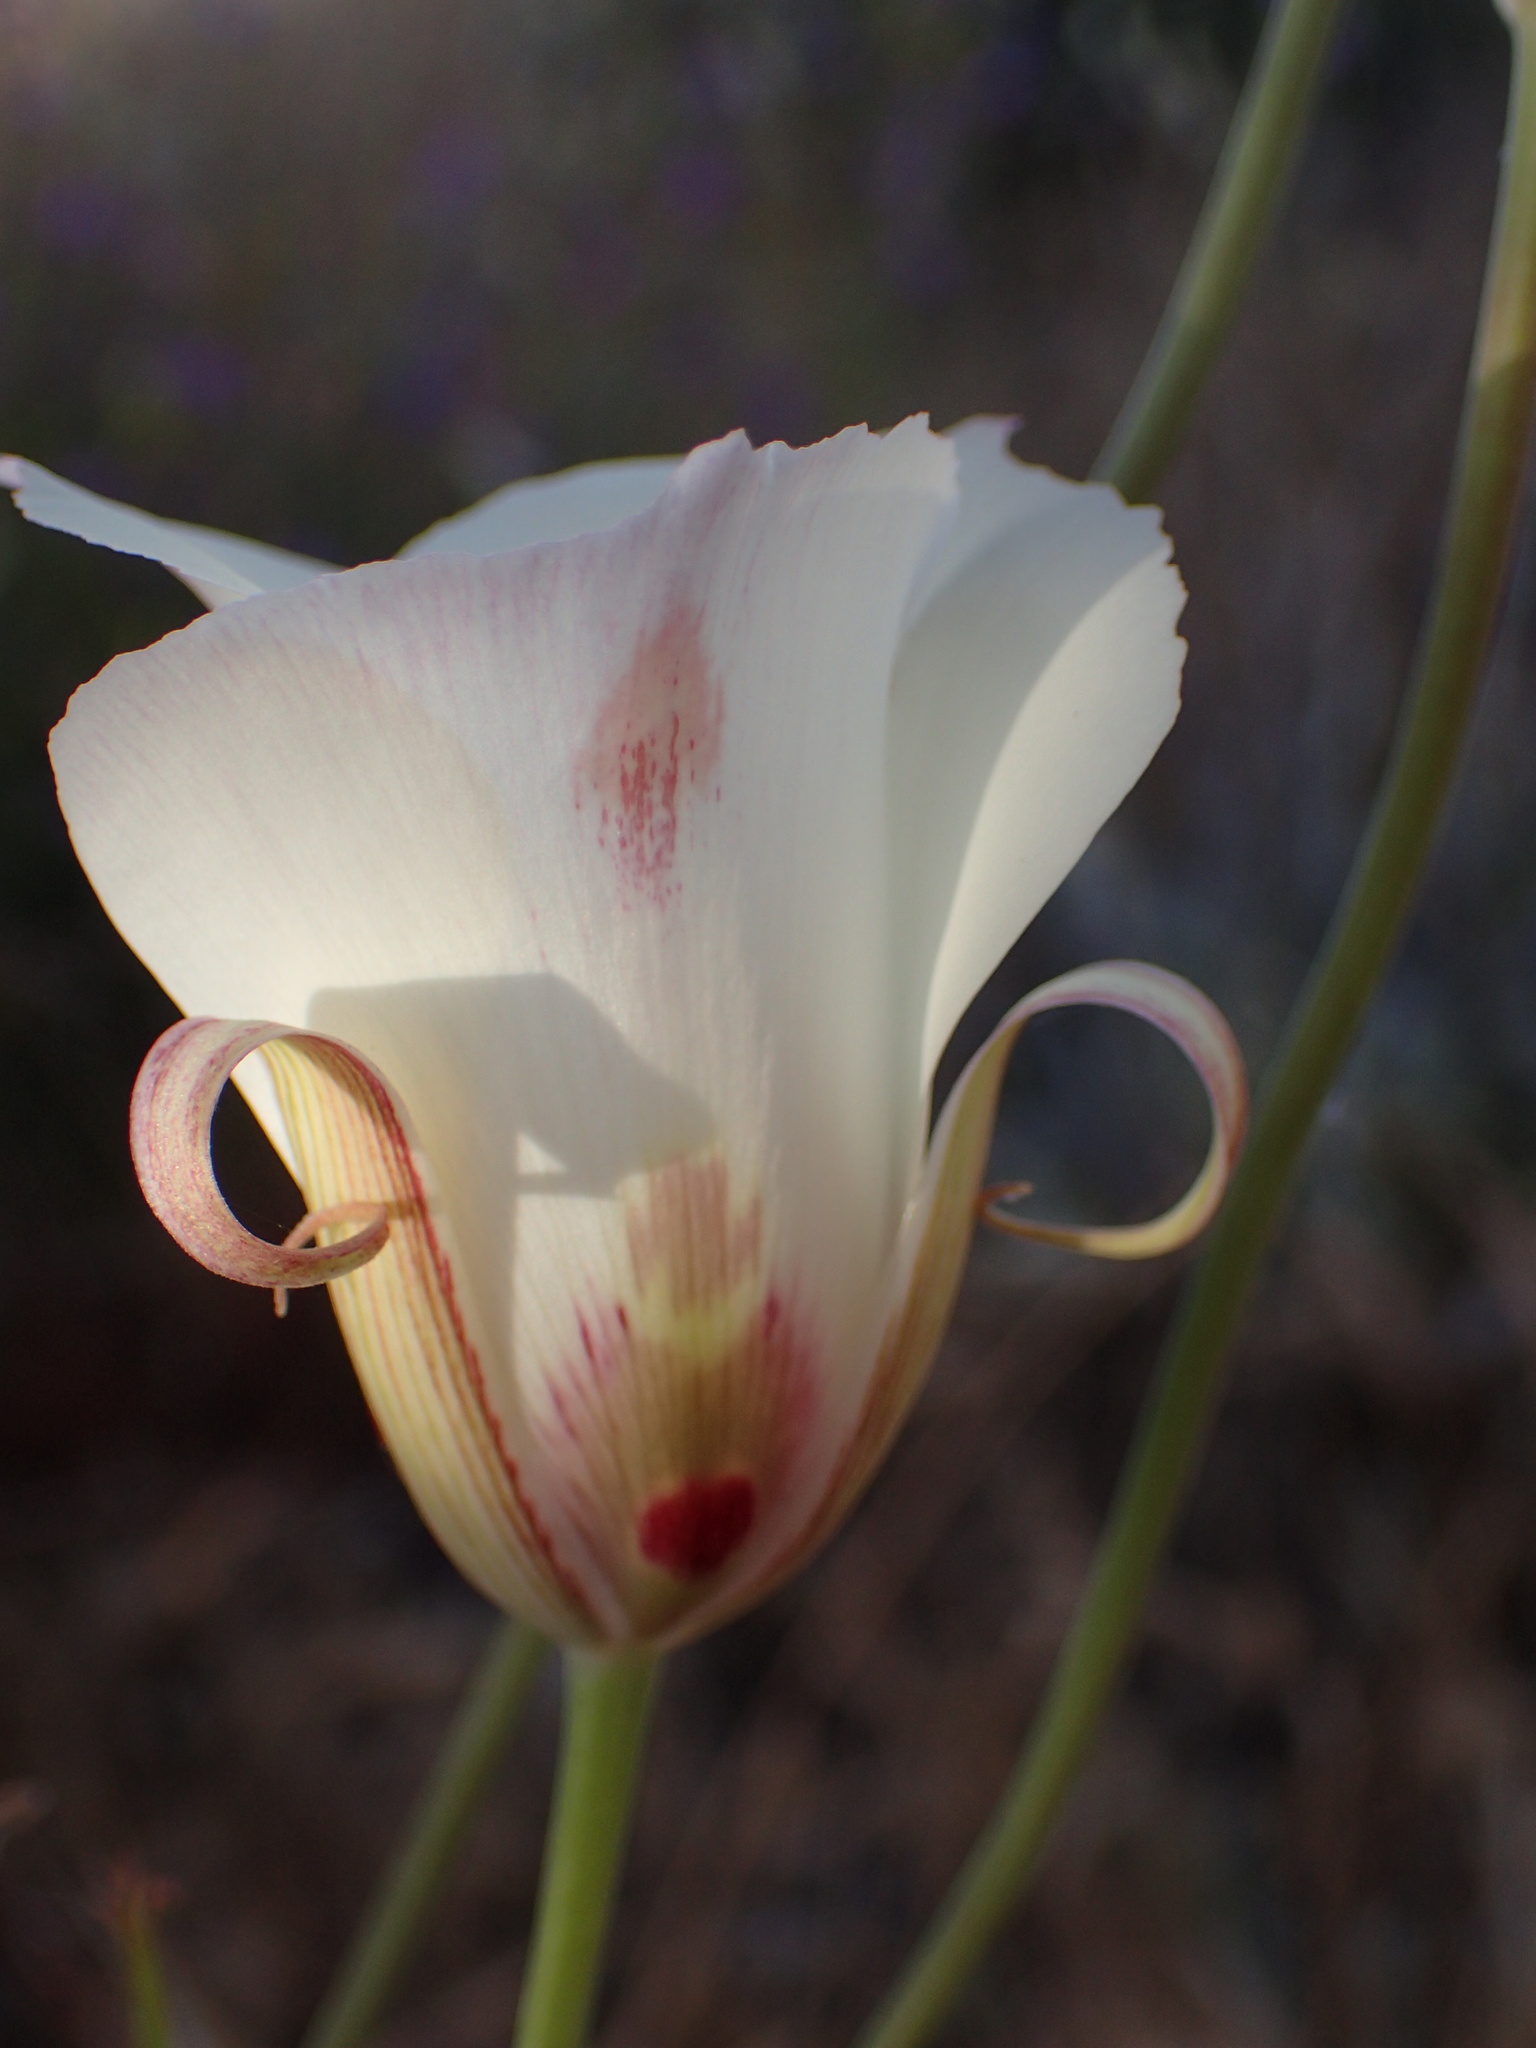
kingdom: Plantae
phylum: Tracheophyta
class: Liliopsida
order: Liliales
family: Liliaceae
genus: Calochortus
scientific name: Calochortus venustus
